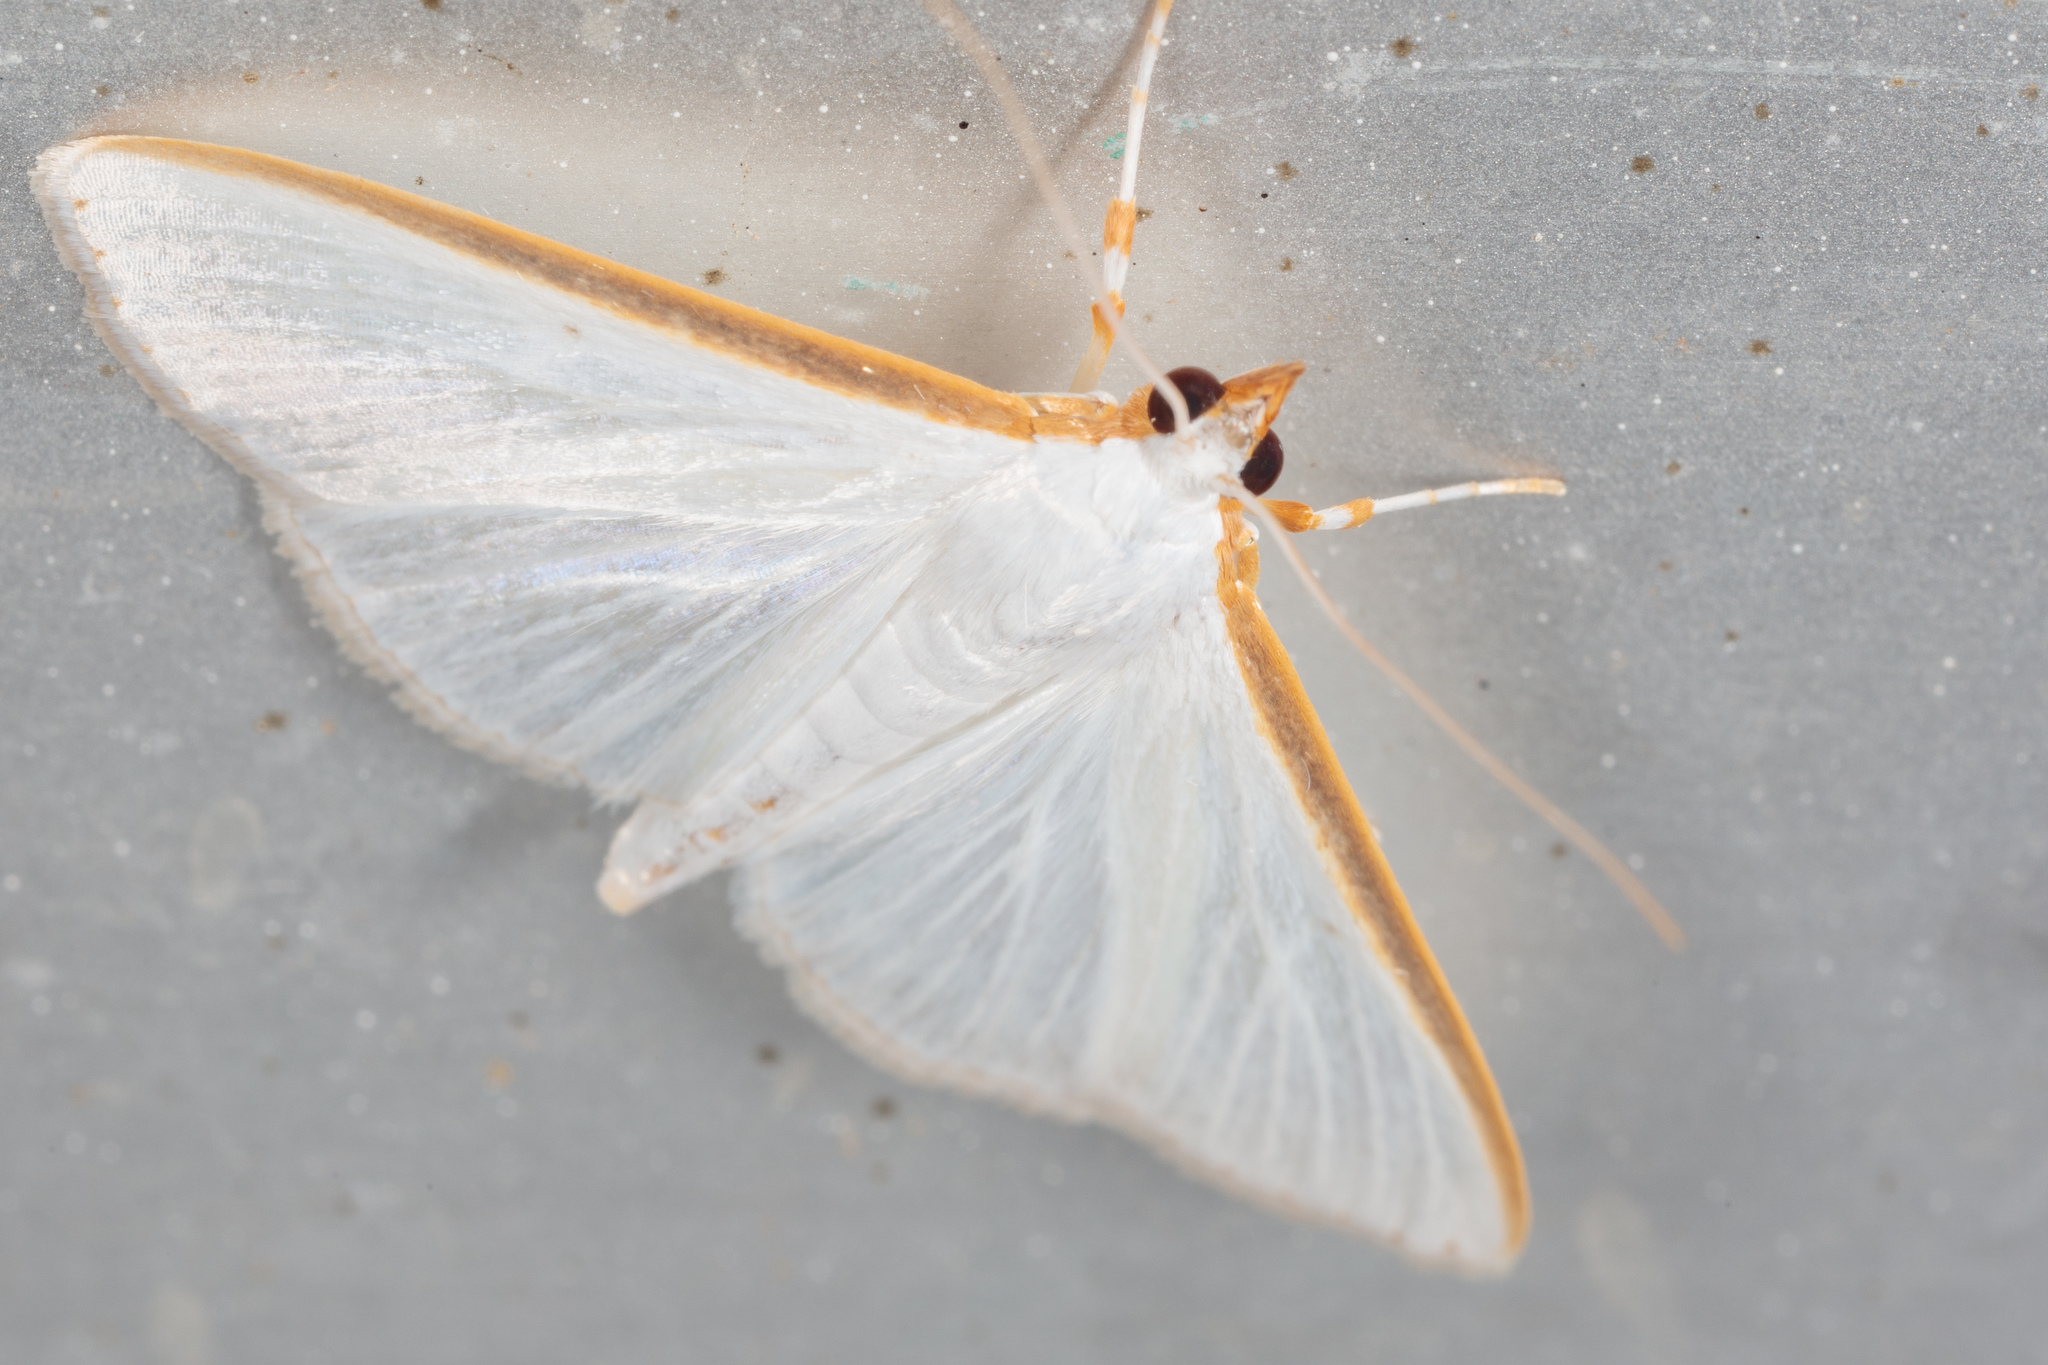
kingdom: Animalia
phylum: Arthropoda
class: Insecta
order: Lepidoptera
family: Crambidae
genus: Diaphania
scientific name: Diaphania costata
